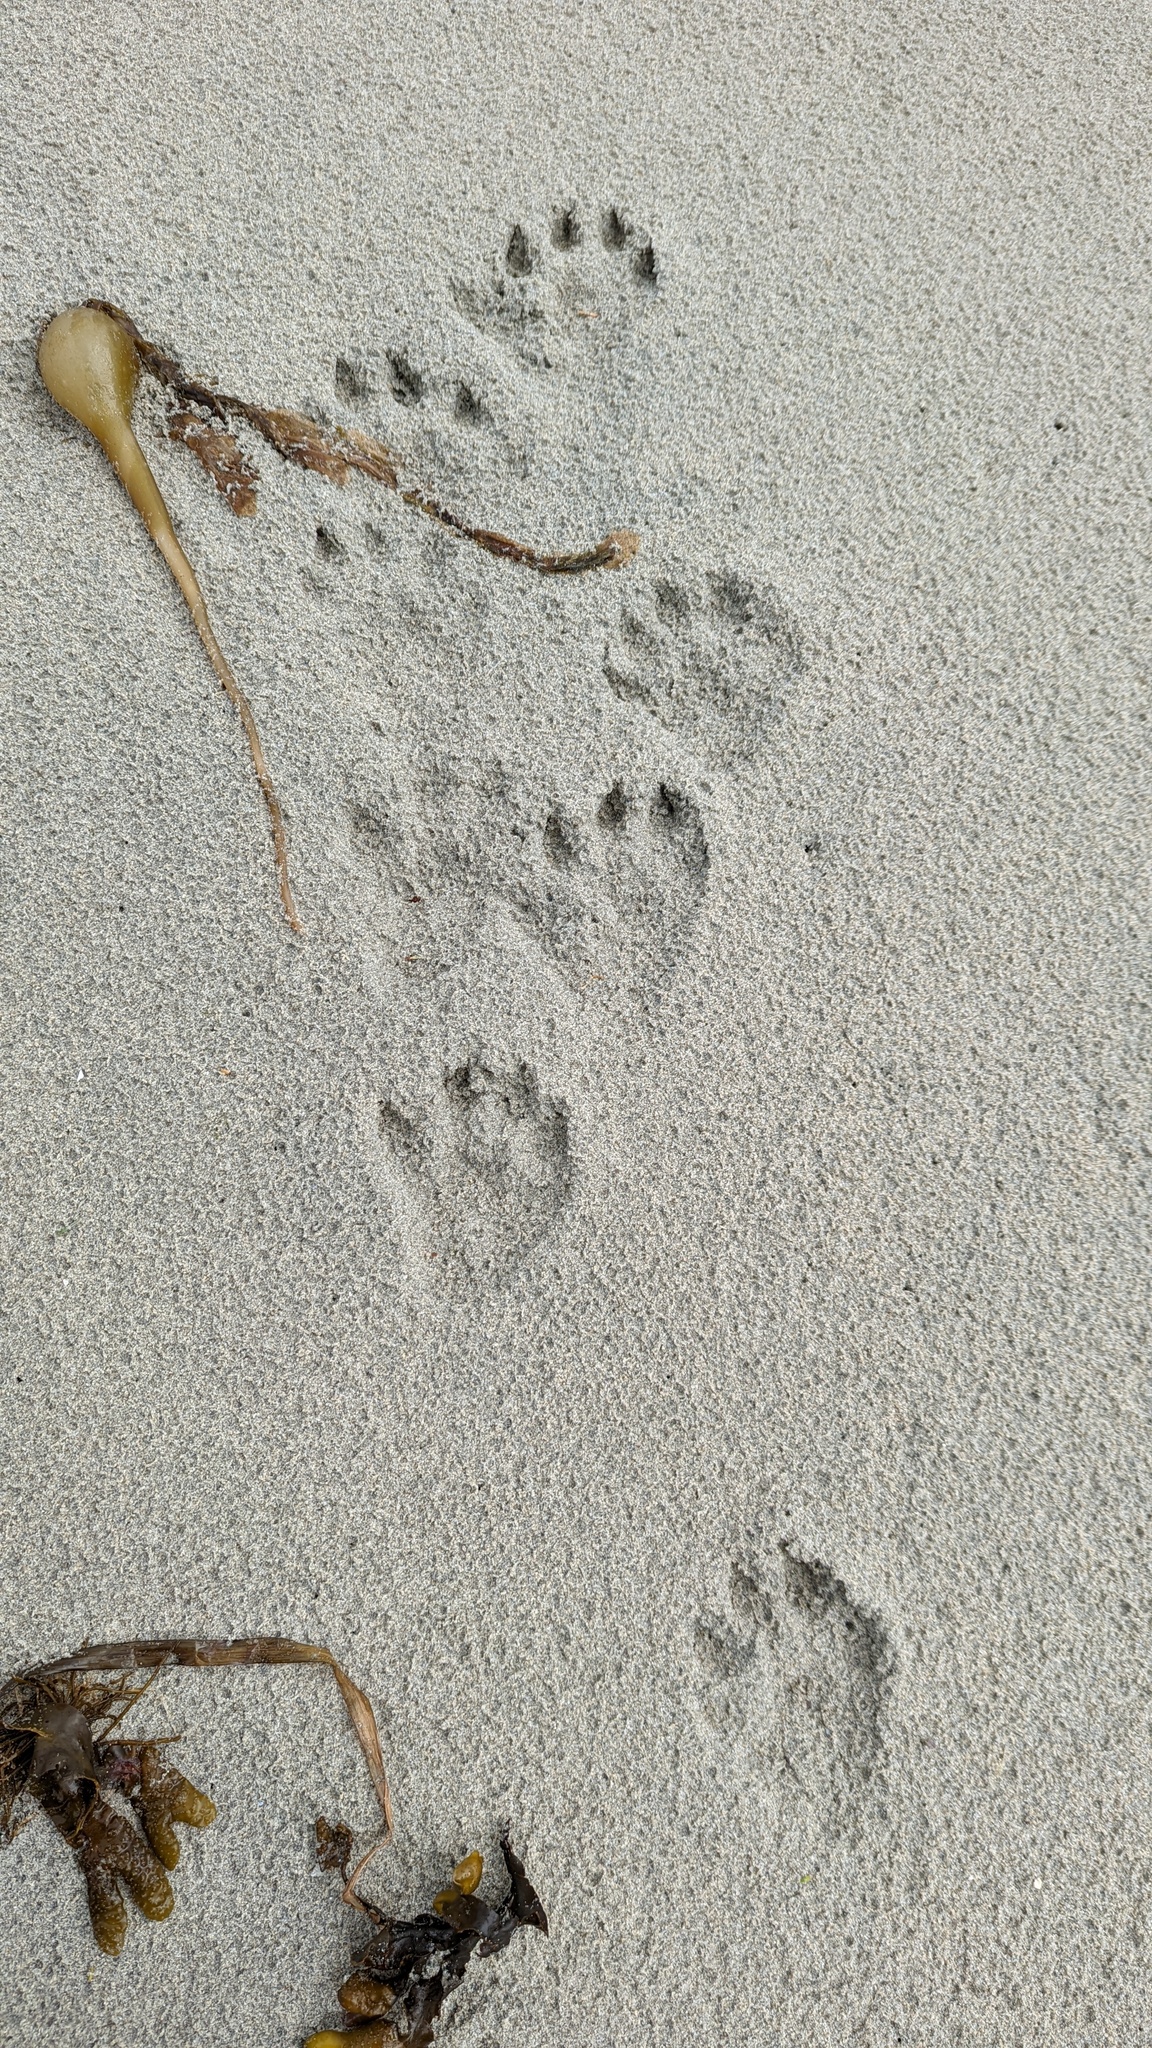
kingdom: Animalia
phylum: Chordata
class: Mammalia
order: Carnivora
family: Mustelidae
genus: Lontra
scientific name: Lontra canadensis
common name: North american river otter
